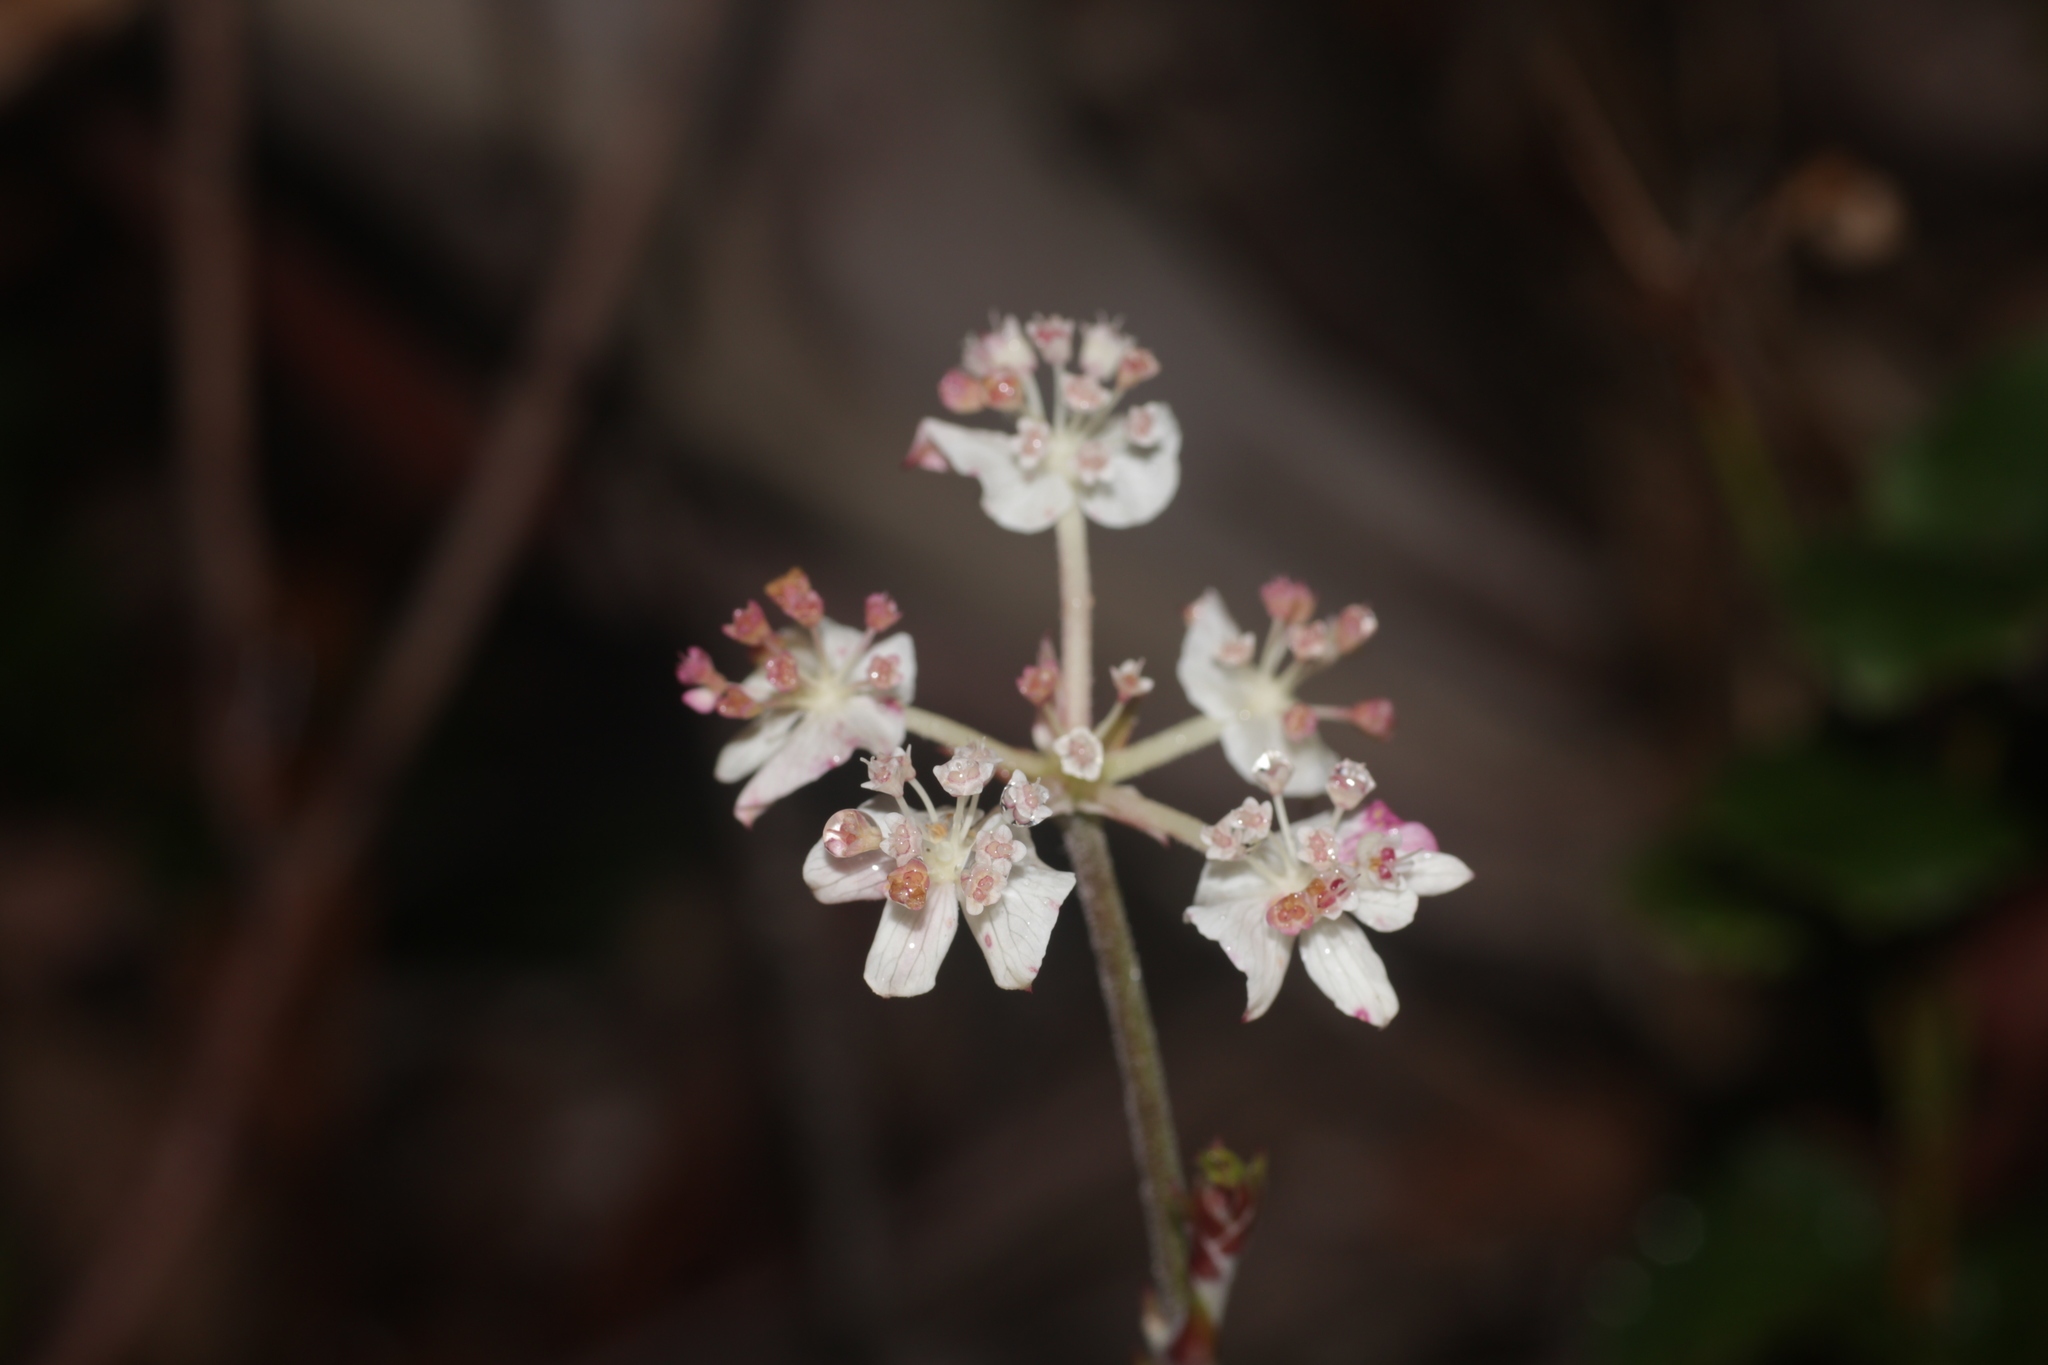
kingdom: Plantae
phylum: Tracheophyta
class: Magnoliopsida
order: Apiales
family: Apiaceae
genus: Xanthosia
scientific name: Xanthosia rotundifolia
